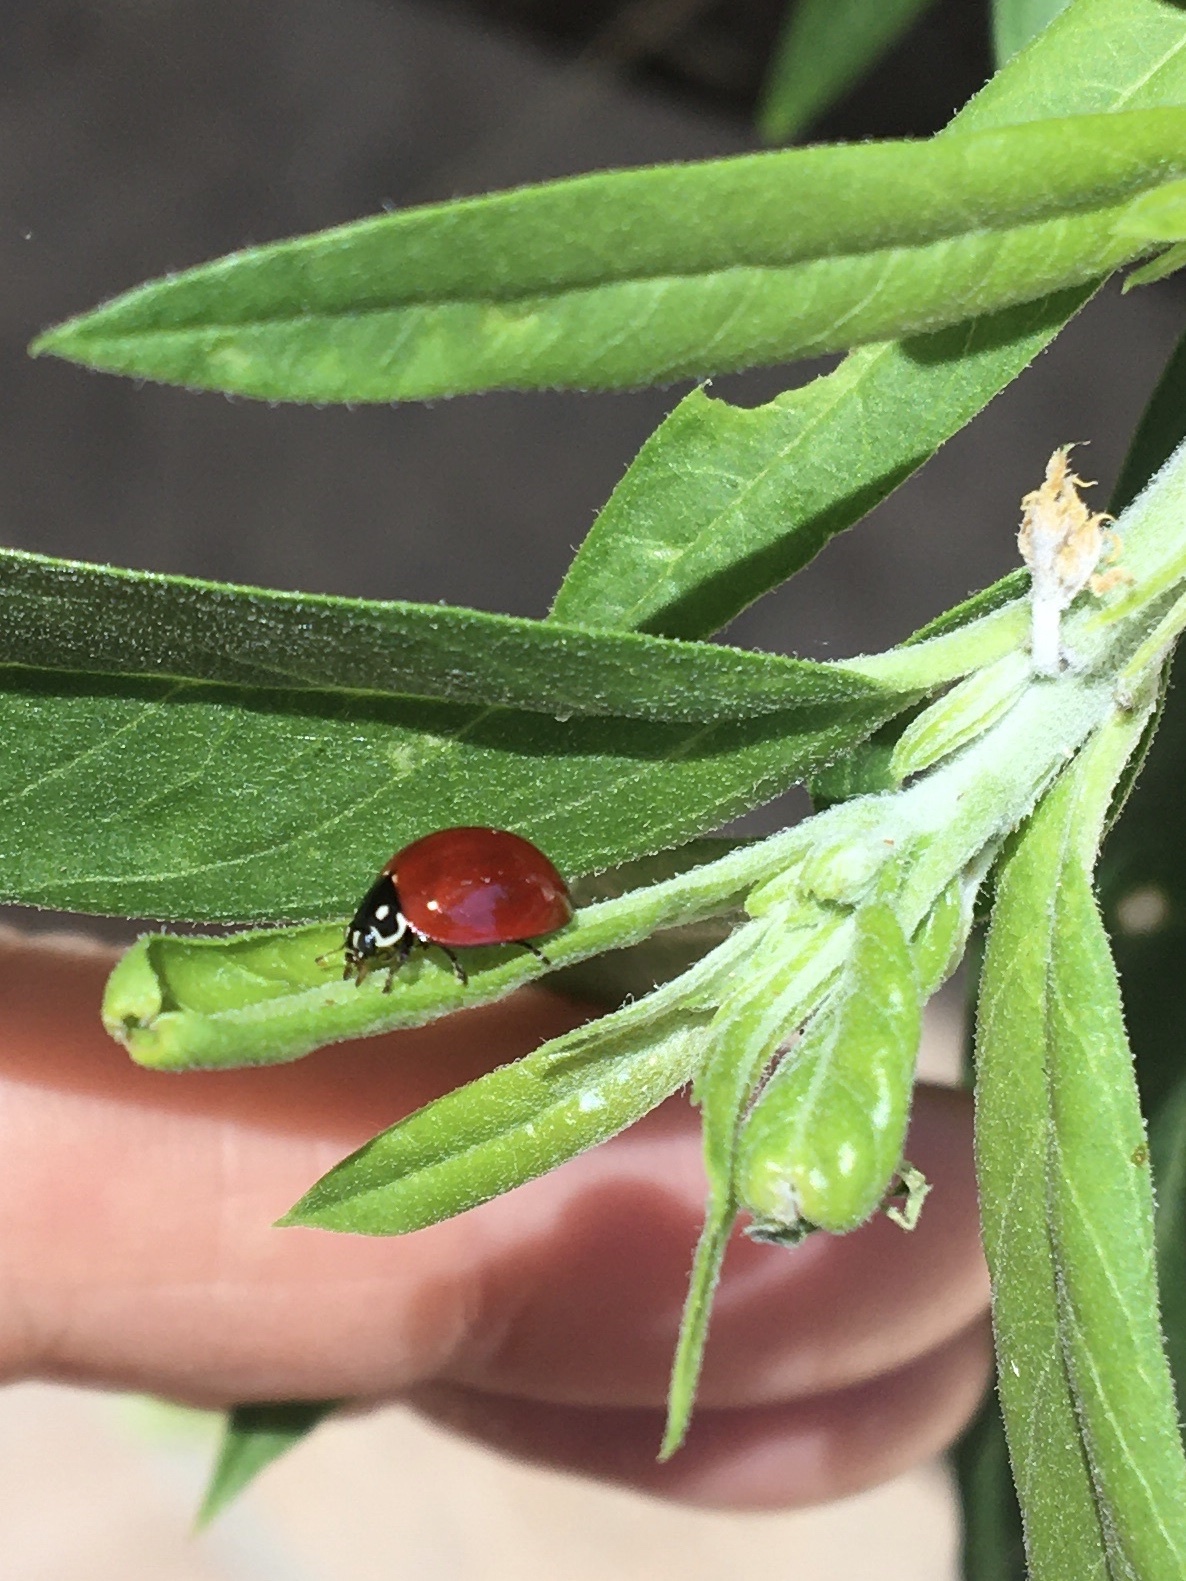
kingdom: Animalia
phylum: Arthropoda
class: Insecta
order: Coleoptera
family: Coccinellidae
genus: Cycloneda
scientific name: Cycloneda sanguinea
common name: Ladybird beetle
